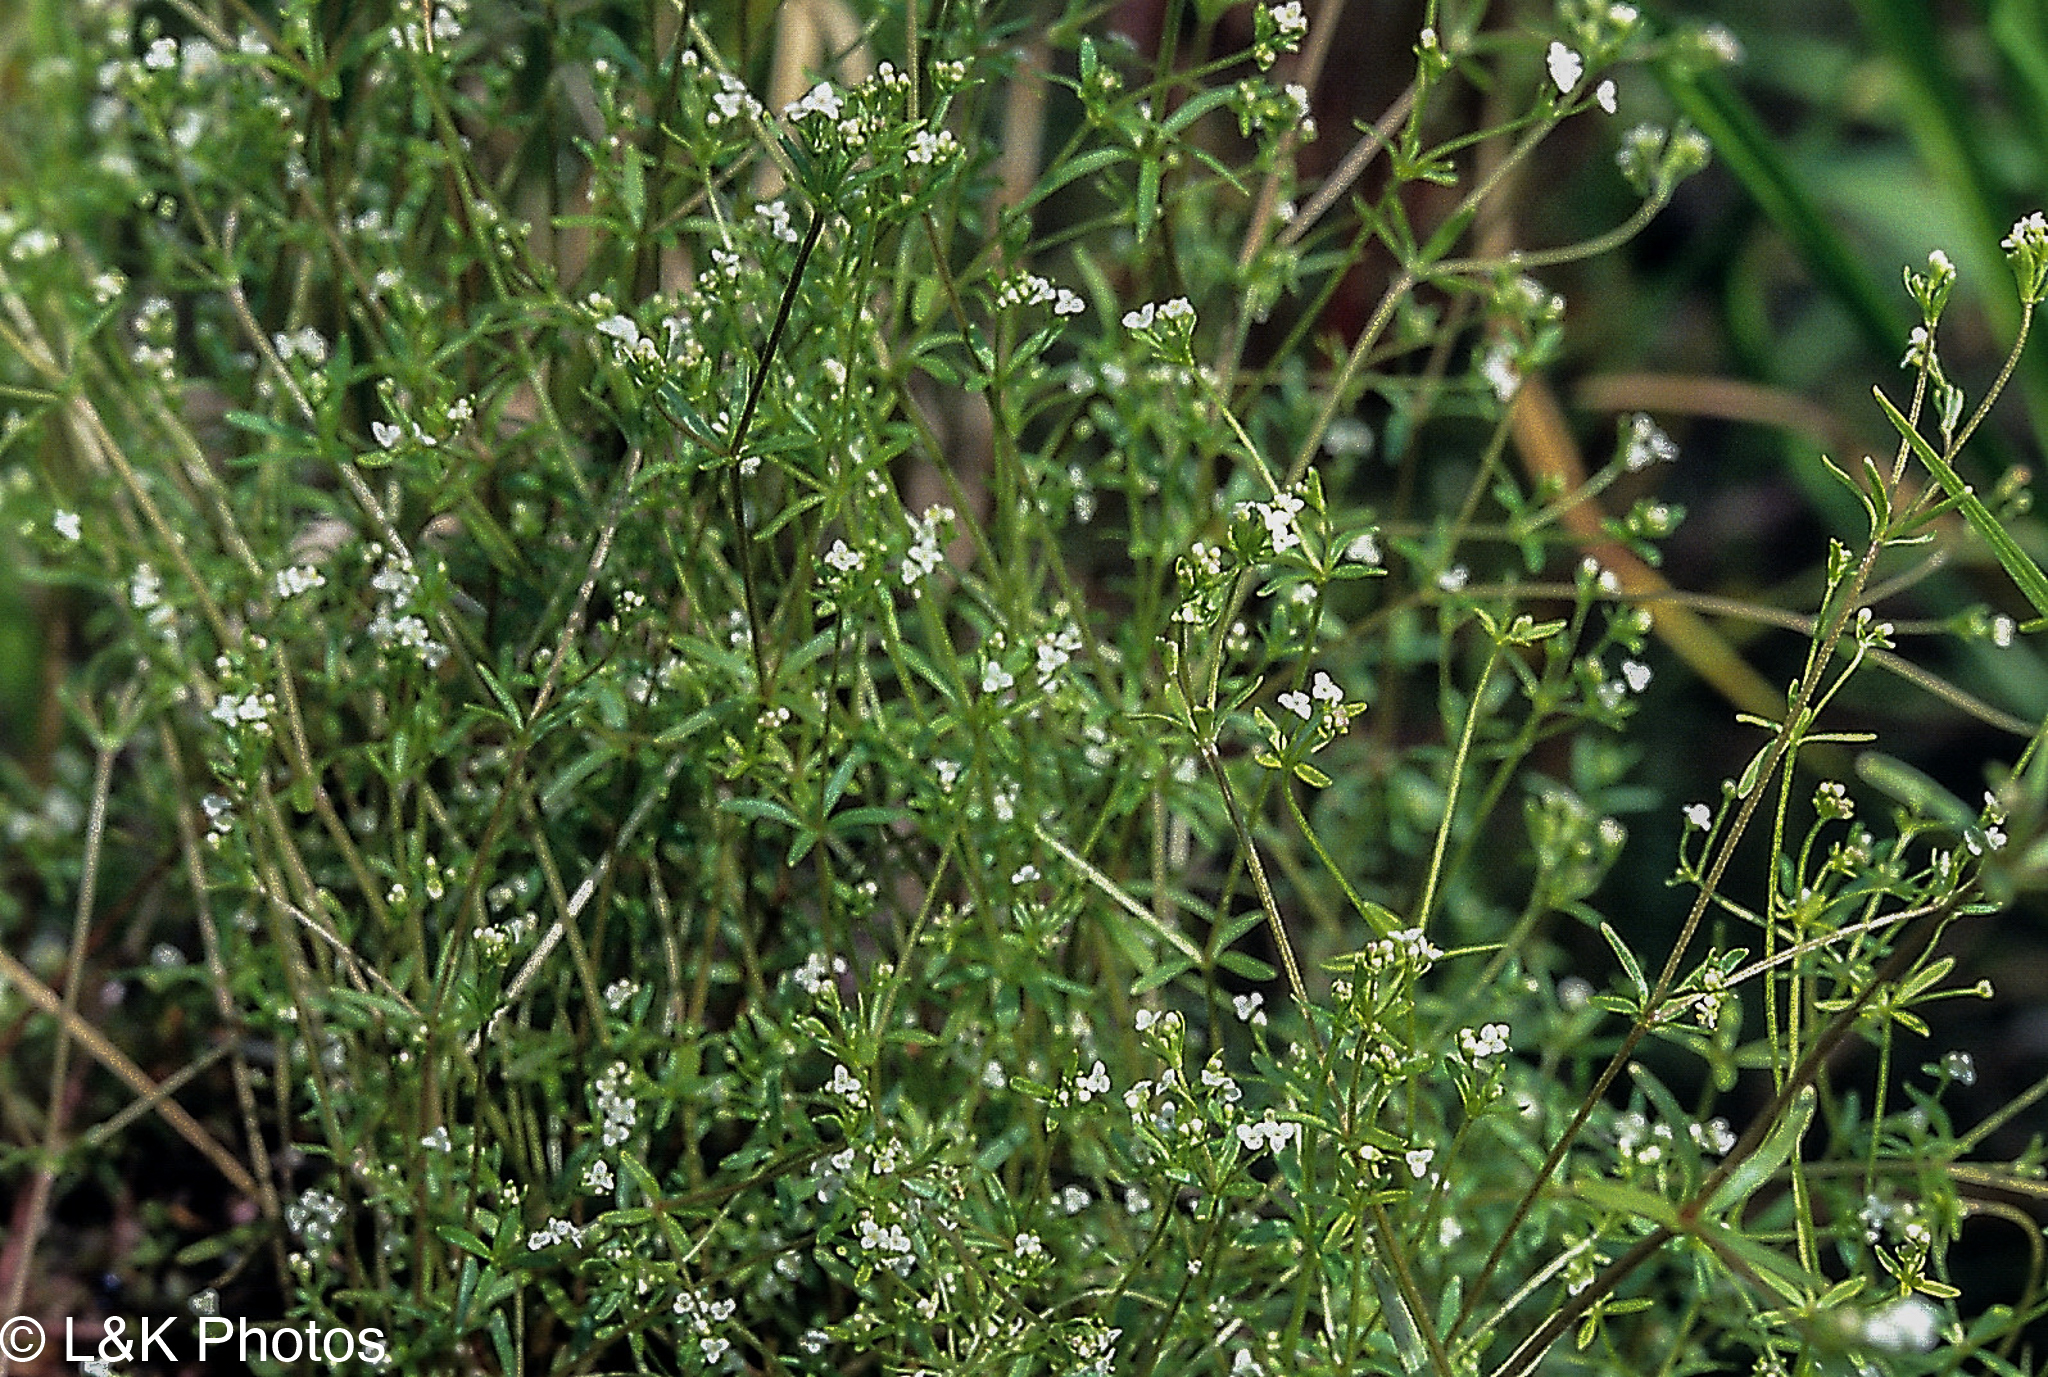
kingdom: Plantae
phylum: Tracheophyta
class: Magnoliopsida
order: Gentianales
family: Rubiaceae
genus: Galium
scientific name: Galium trifidum
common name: Small bedstraw
